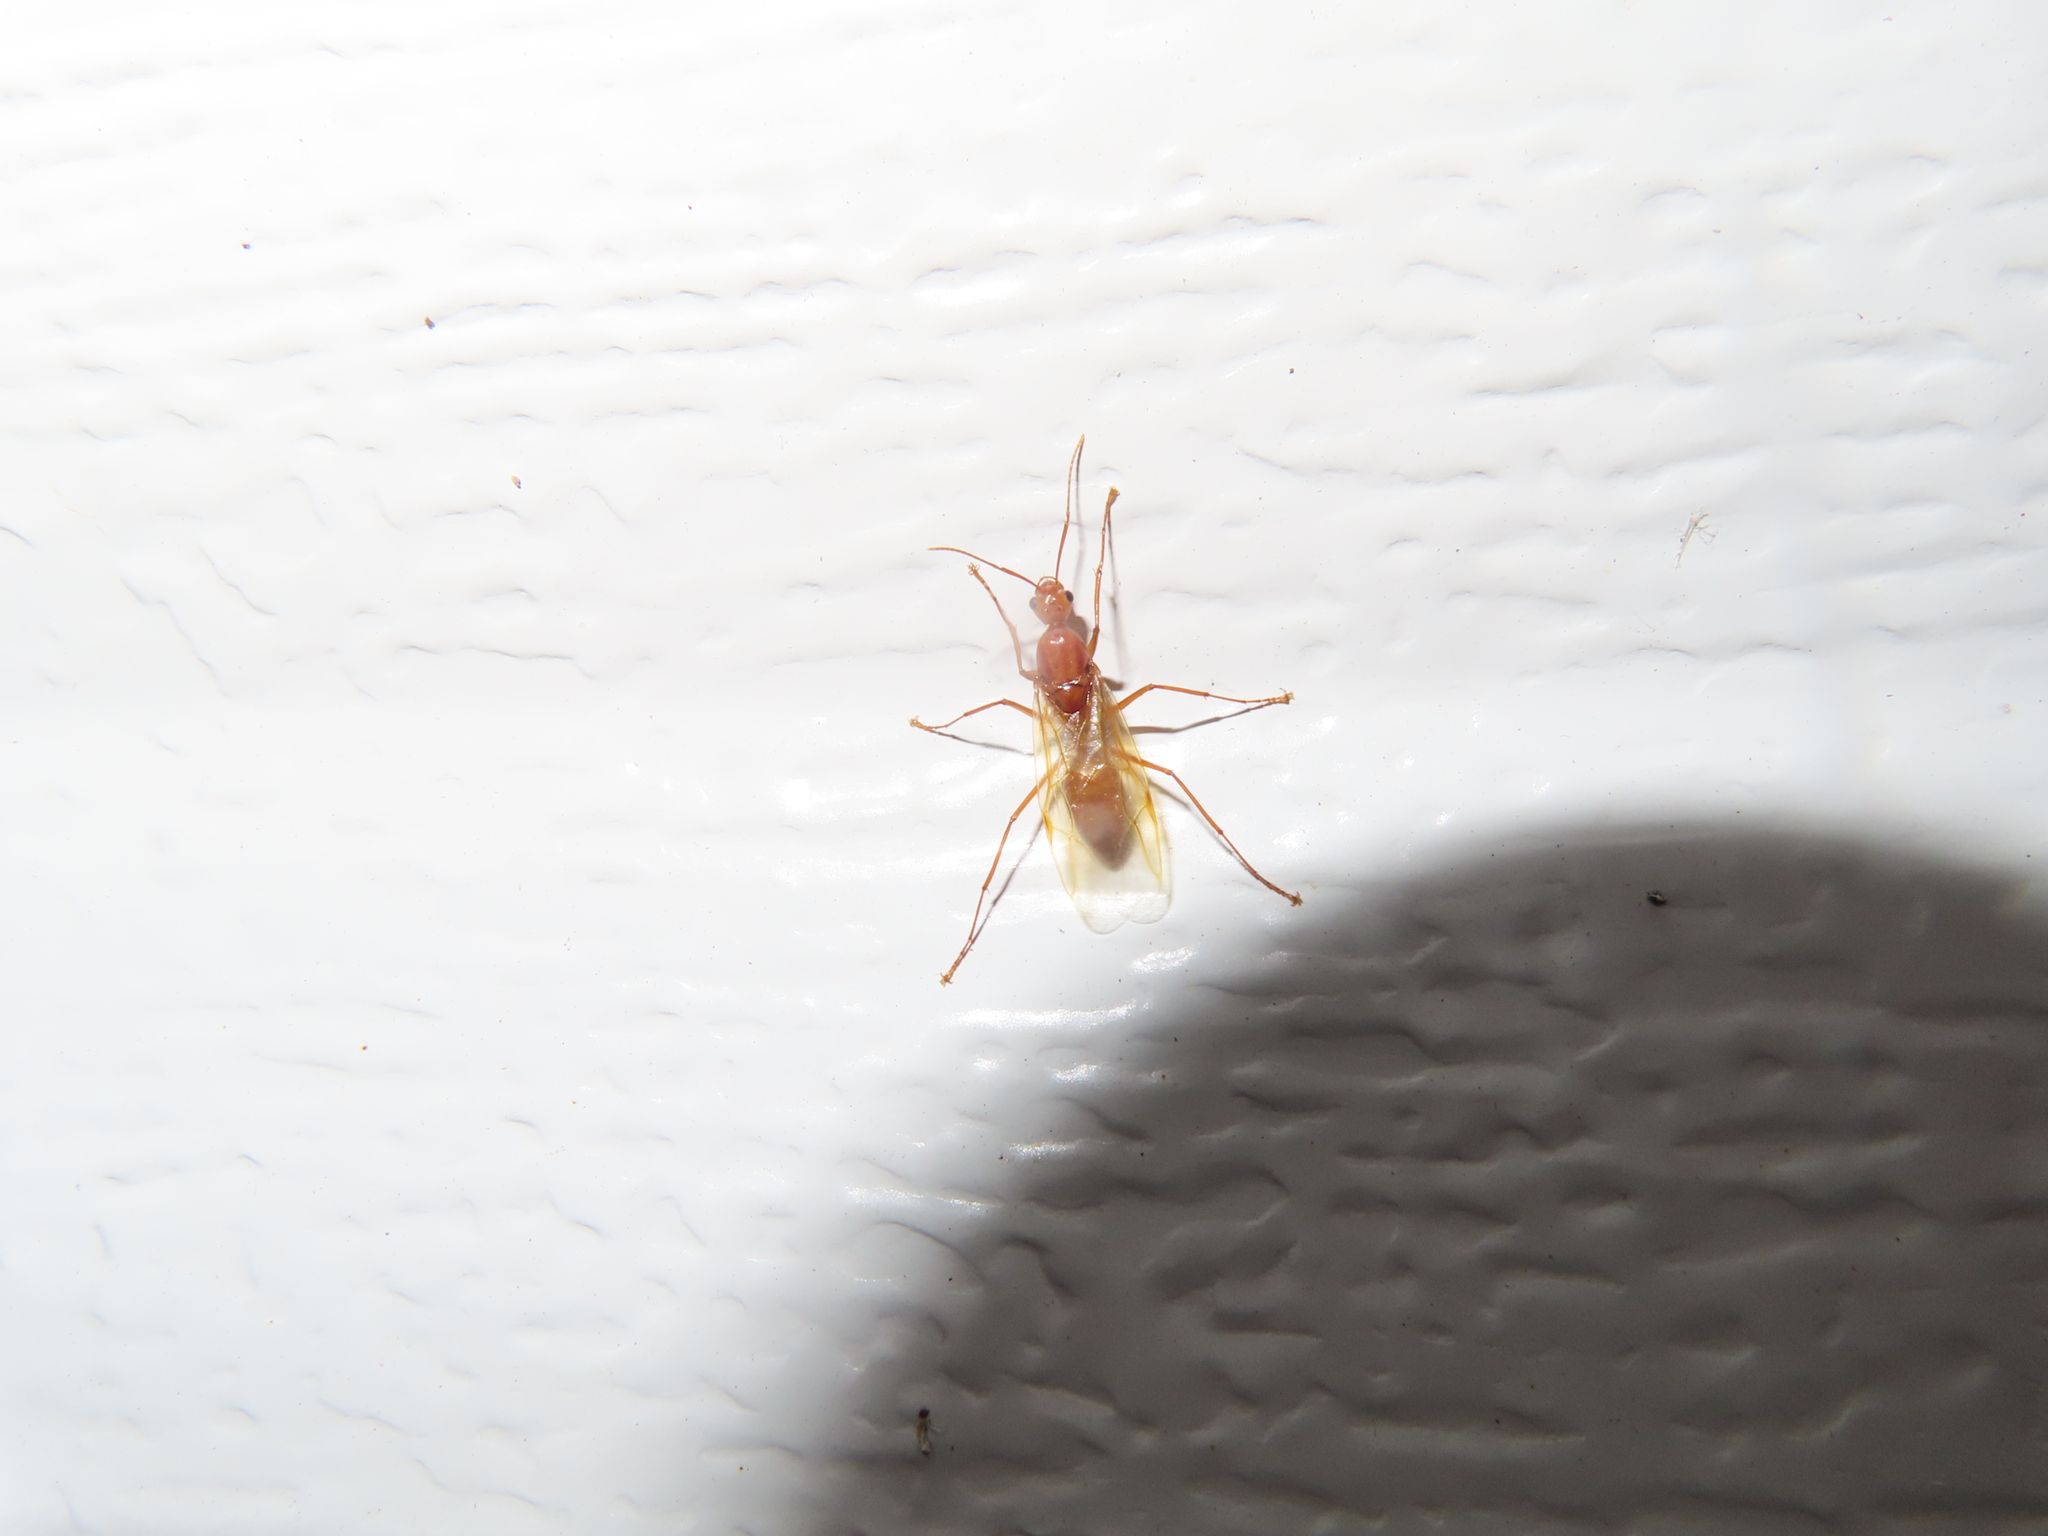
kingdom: Animalia
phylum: Arthropoda
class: Insecta
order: Hymenoptera
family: Formicidae
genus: Camponotus
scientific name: Camponotus castaneus
